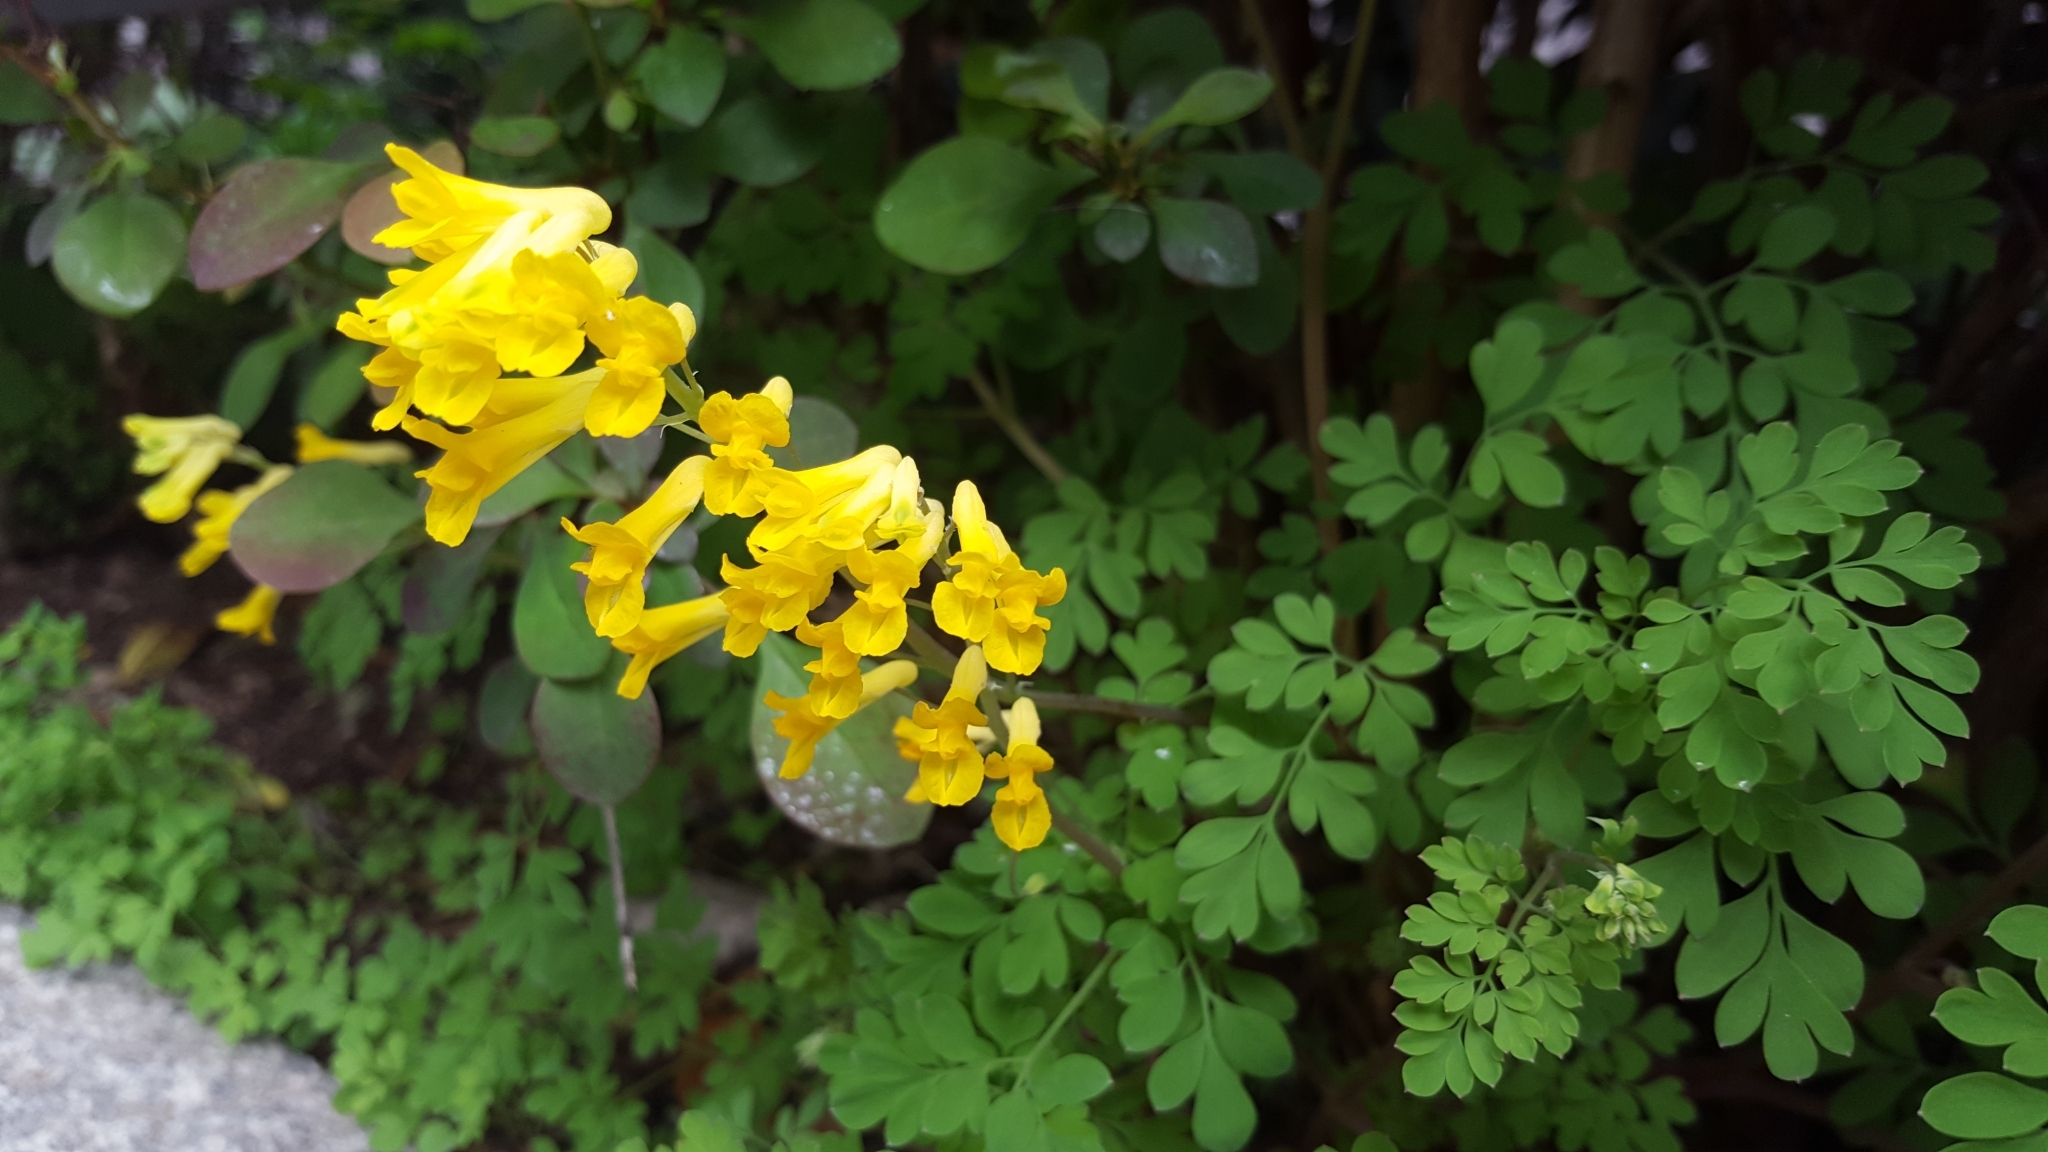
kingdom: Plantae
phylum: Tracheophyta
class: Magnoliopsida
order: Ranunculales
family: Papaveraceae
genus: Pseudofumaria
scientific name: Pseudofumaria lutea
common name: Yellow corydalis
